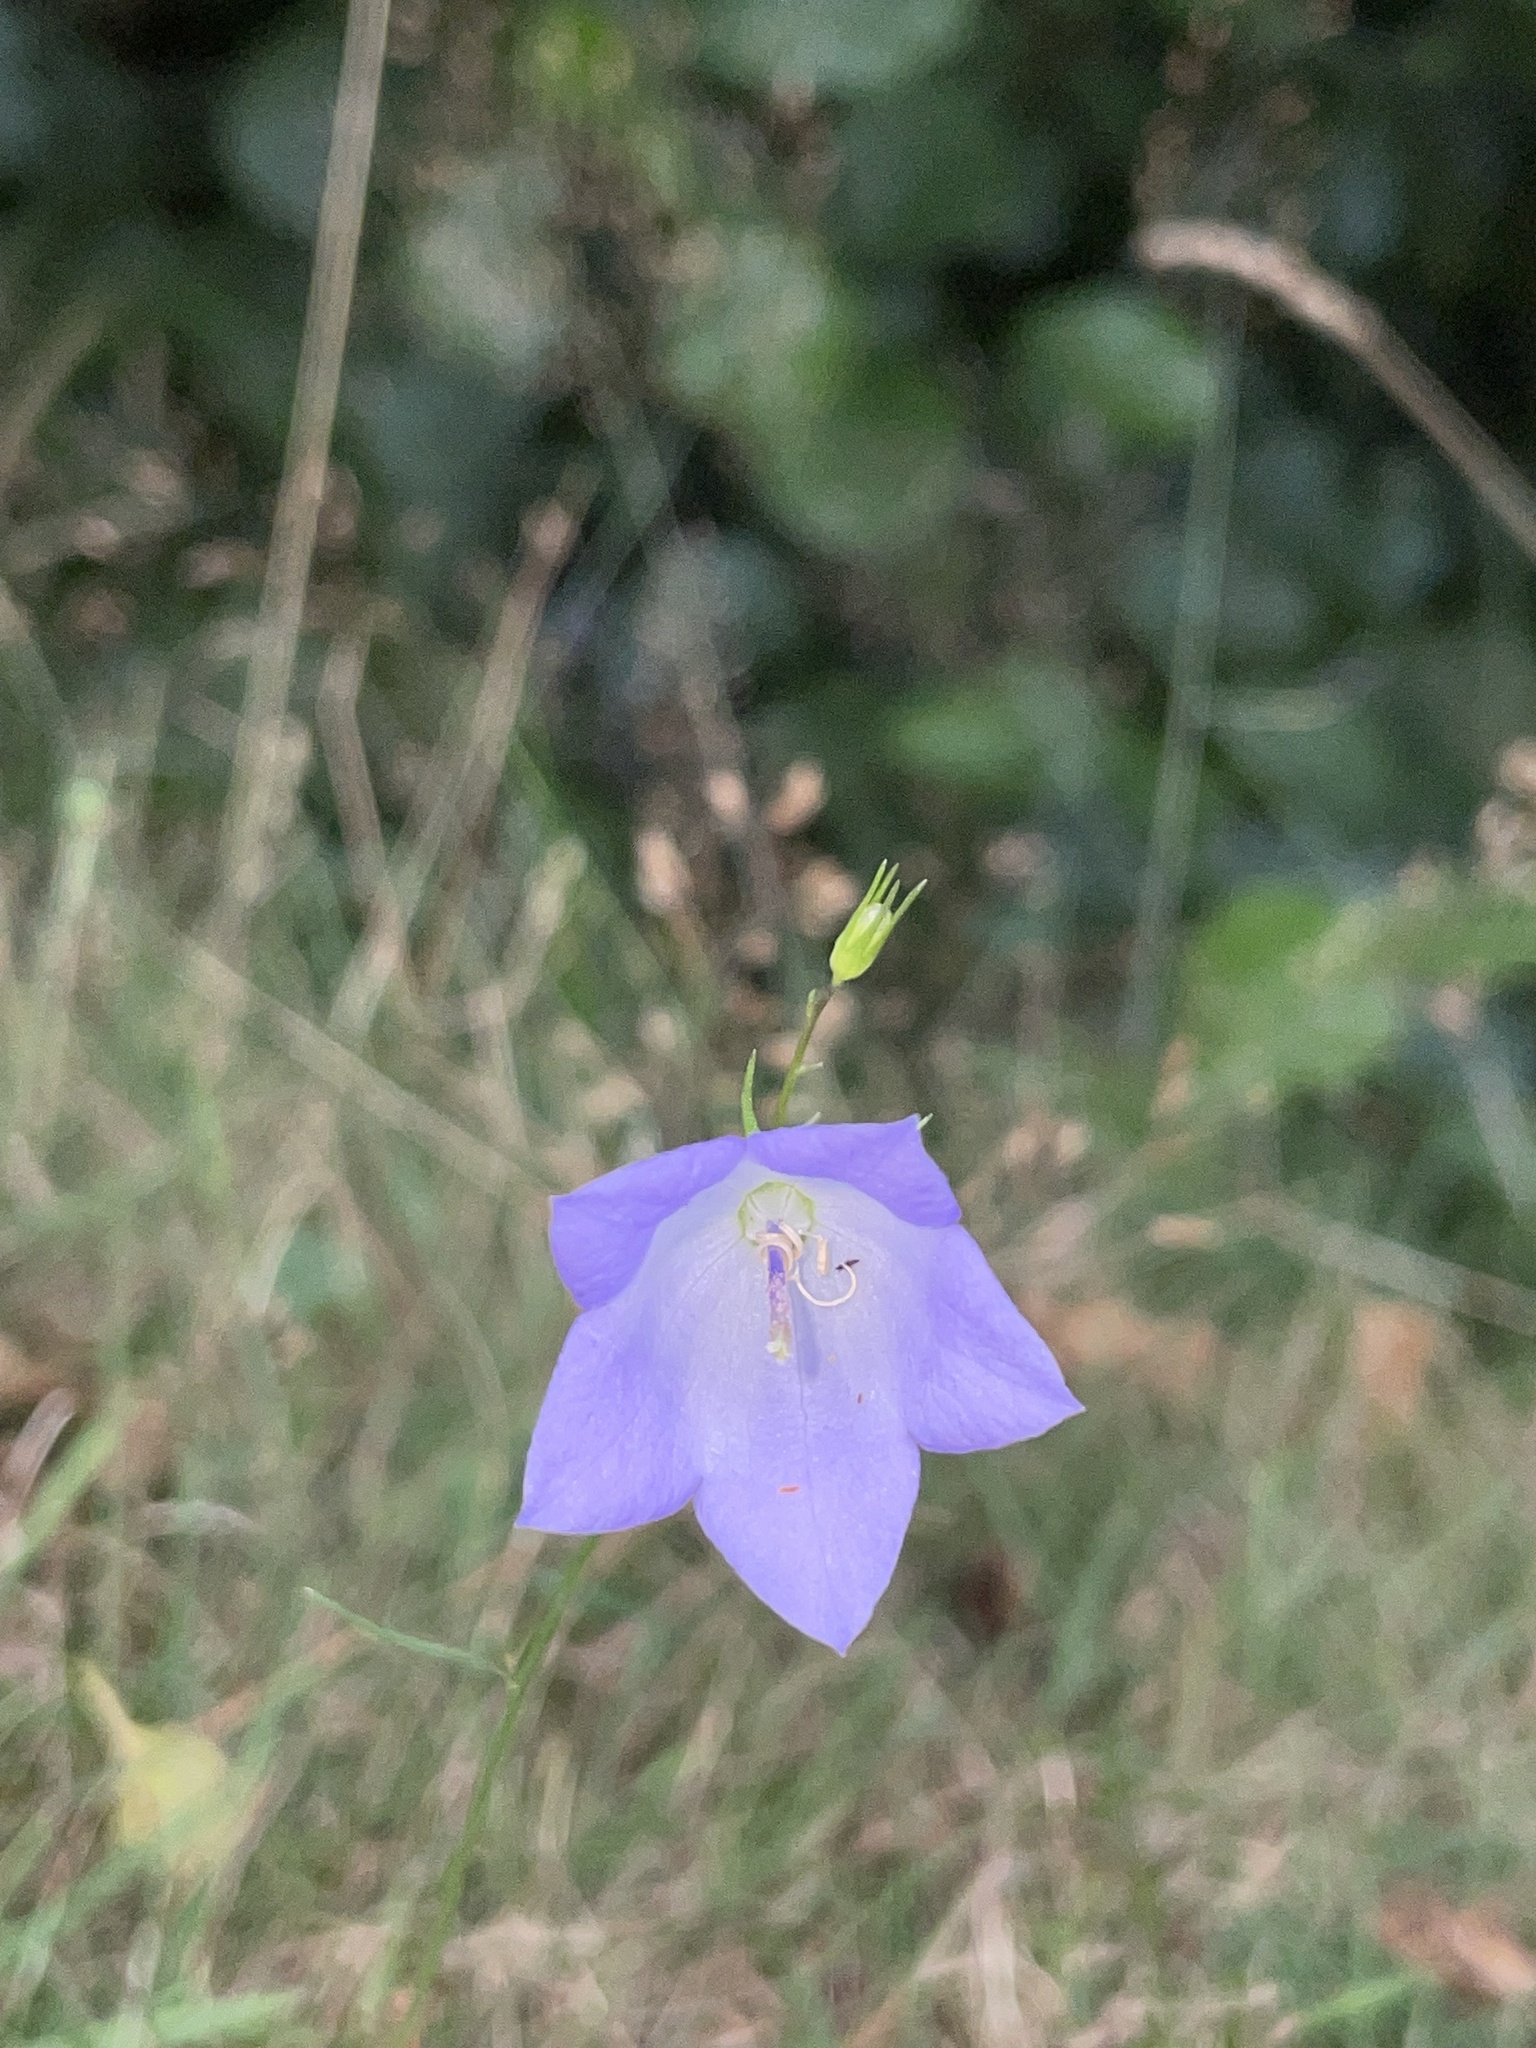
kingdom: Plantae
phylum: Tracheophyta
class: Magnoliopsida
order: Asterales
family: Campanulaceae
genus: Campanula
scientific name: Campanula rotundifolia
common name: Harebell
